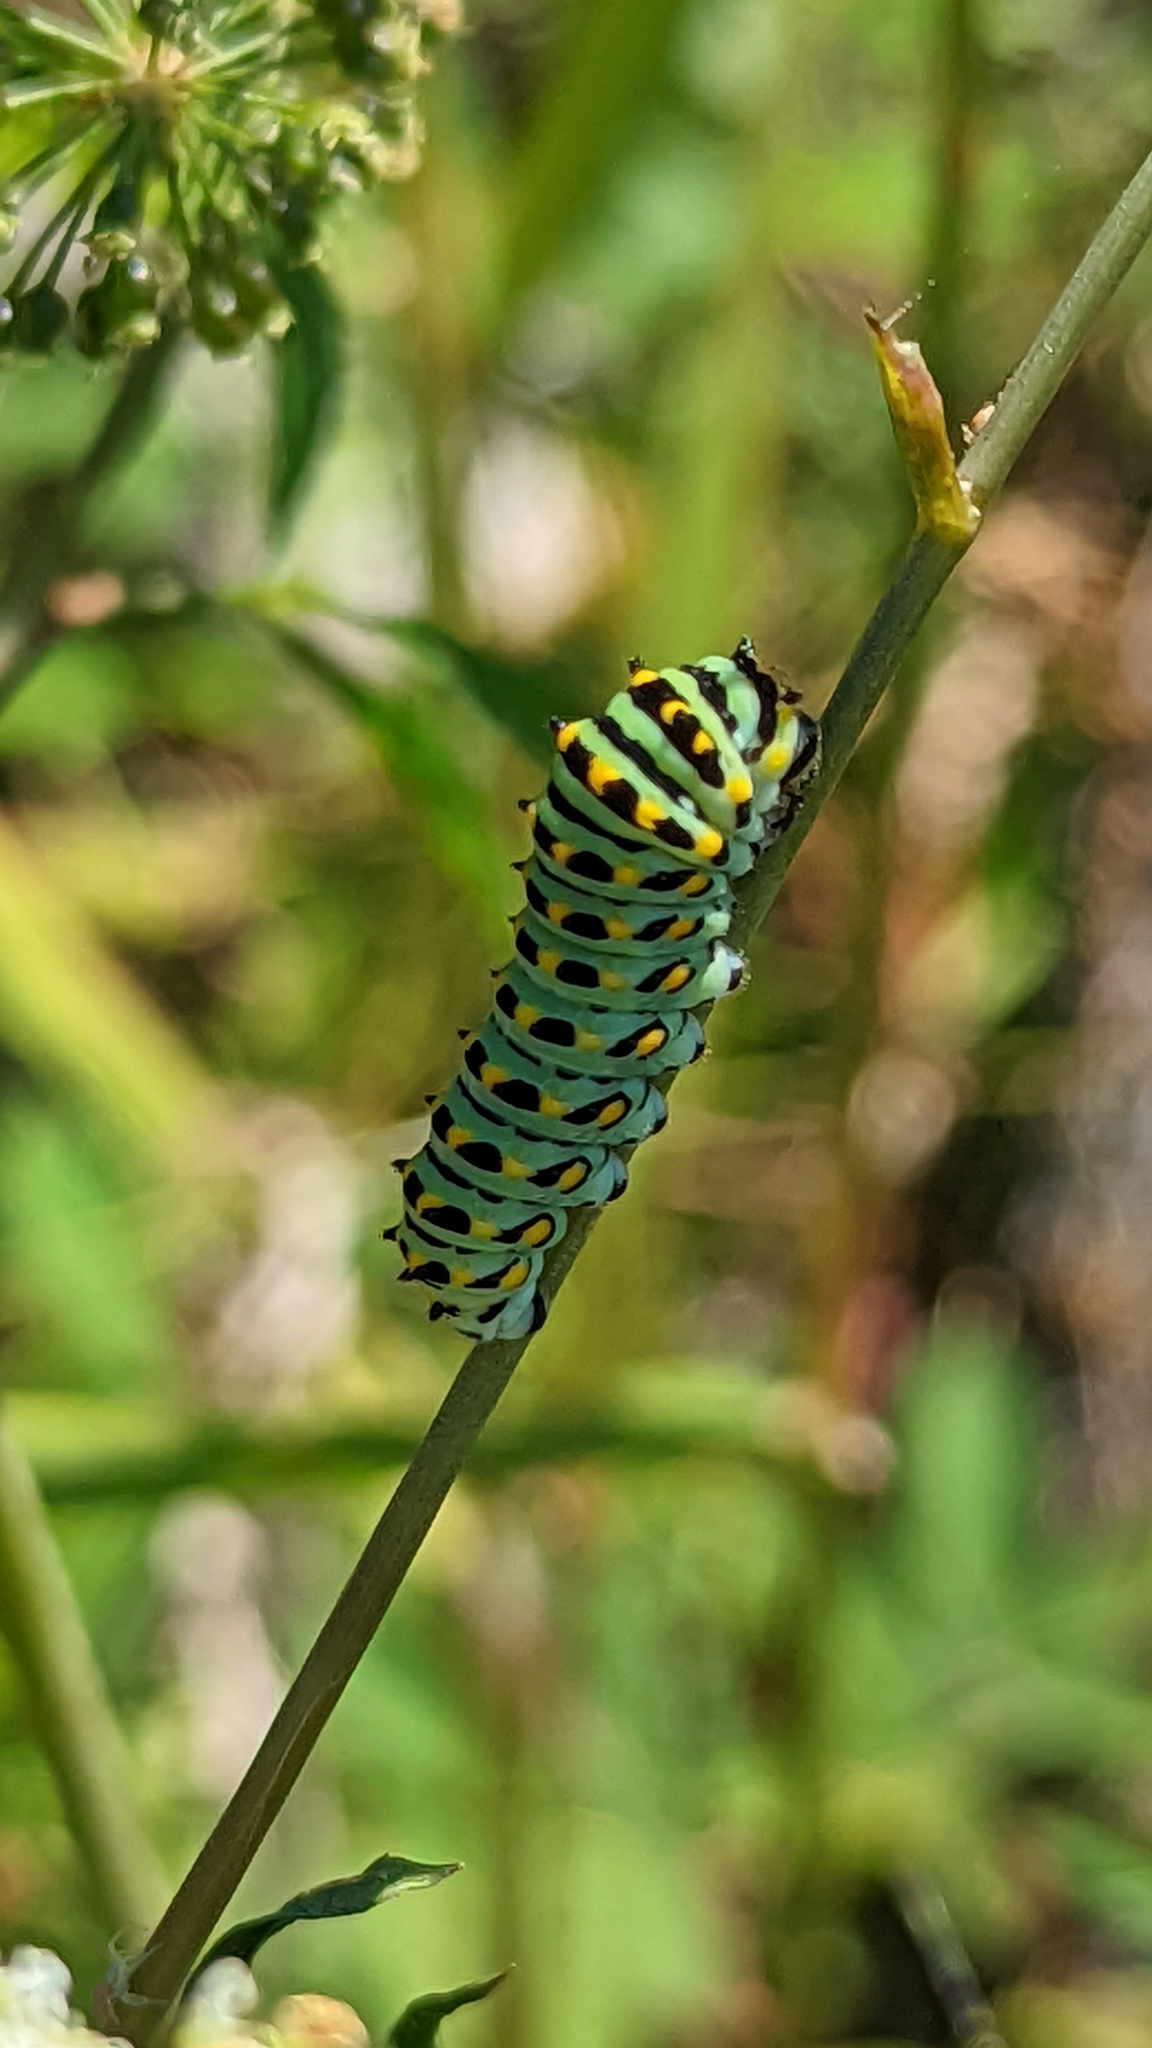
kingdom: Animalia
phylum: Arthropoda
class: Insecta
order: Lepidoptera
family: Papilionidae
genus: Papilio
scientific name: Papilio zelicaon
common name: Anise swallowtail
